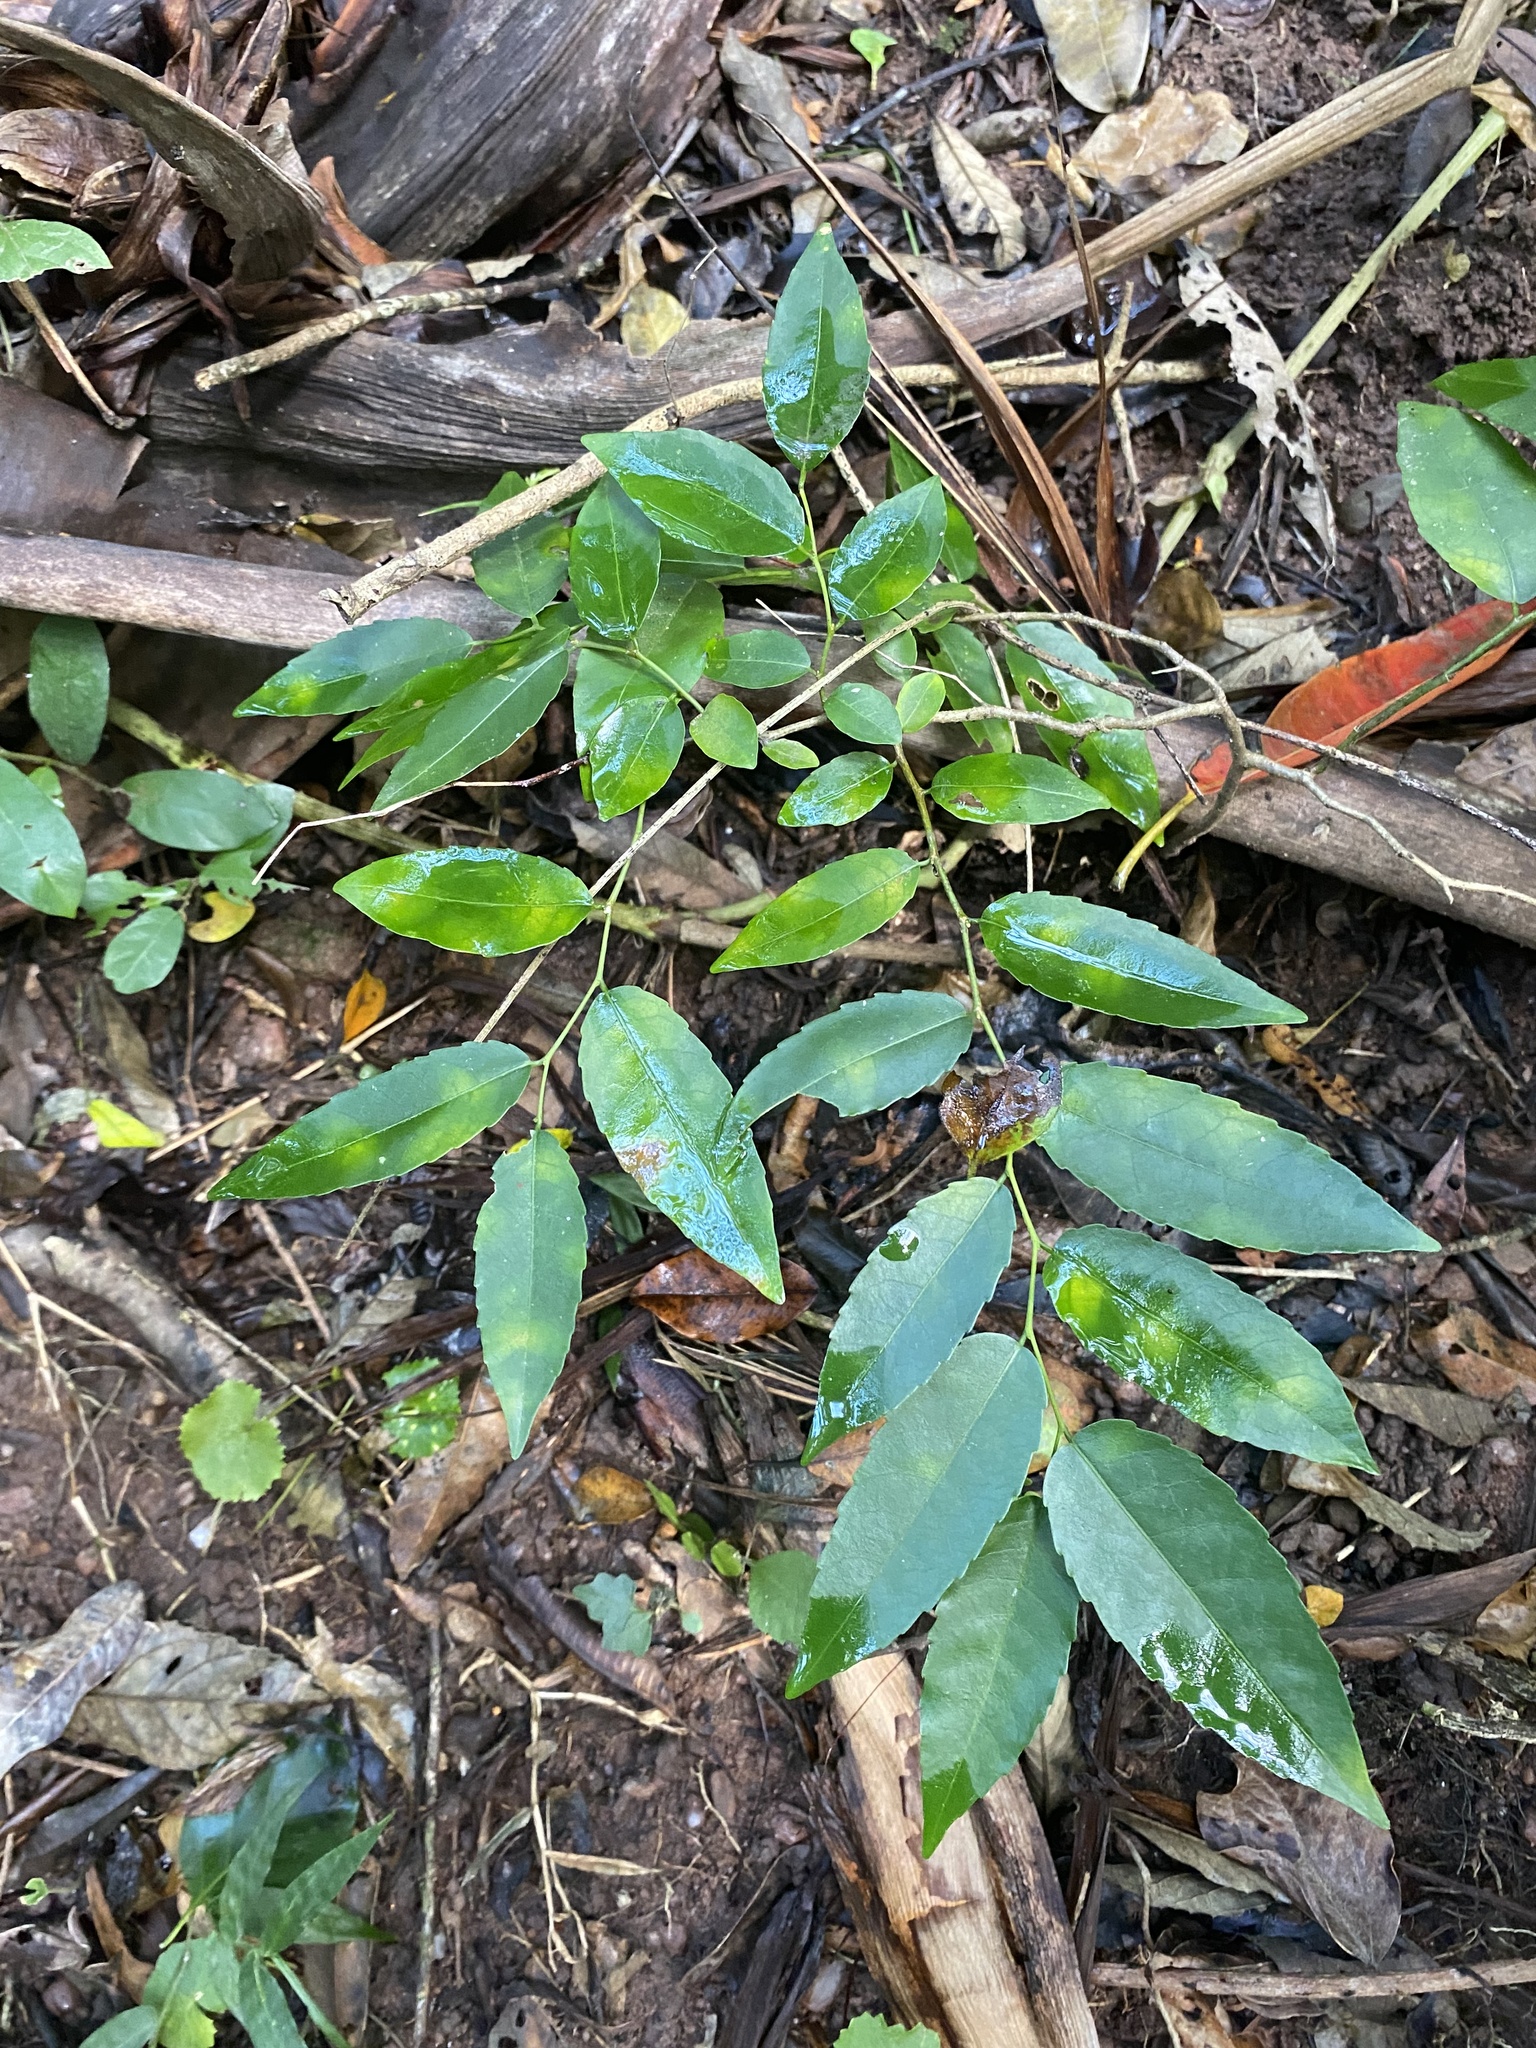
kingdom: Plantae
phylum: Tracheophyta
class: Magnoliopsida
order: Malpighiales
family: Euphorbiaceae
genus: Sclerocroton
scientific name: Sclerocroton integerrimus
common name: Duiker berry
